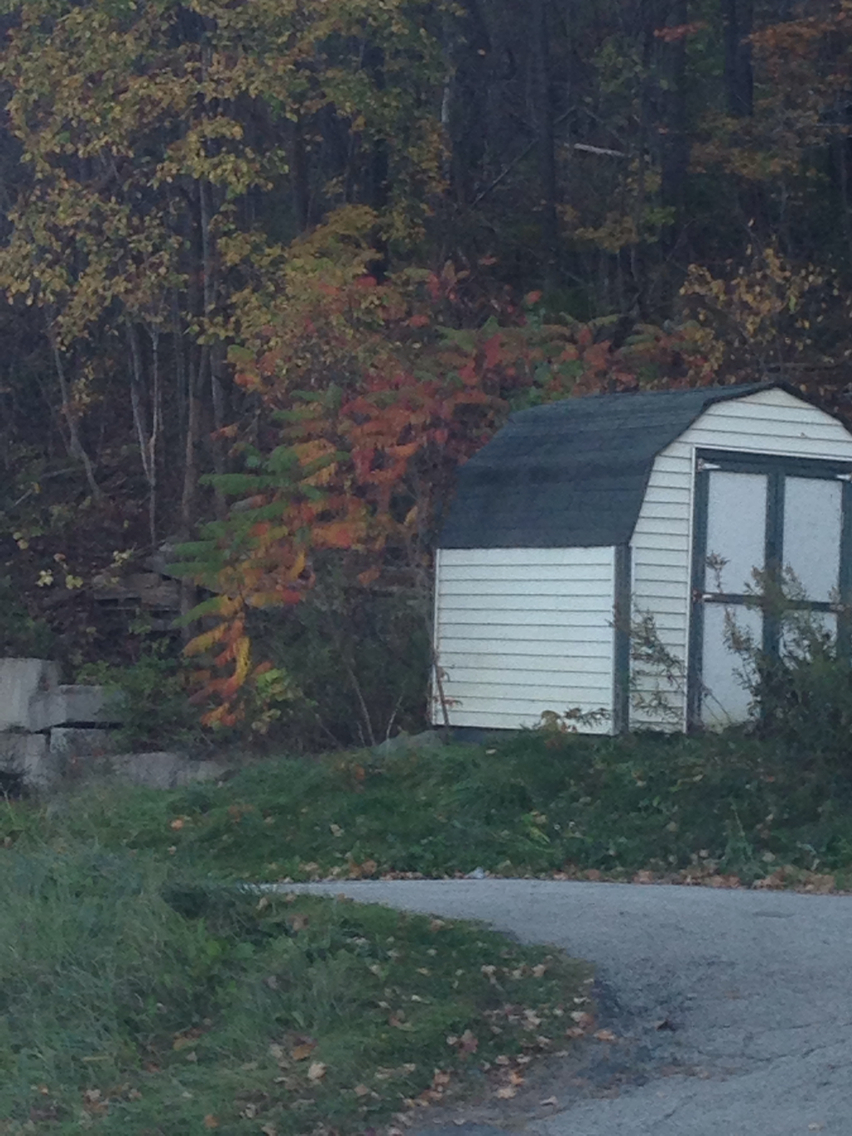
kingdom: Plantae
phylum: Tracheophyta
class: Magnoliopsida
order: Sapindales
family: Anacardiaceae
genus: Rhus
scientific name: Rhus typhina
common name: Staghorn sumac
